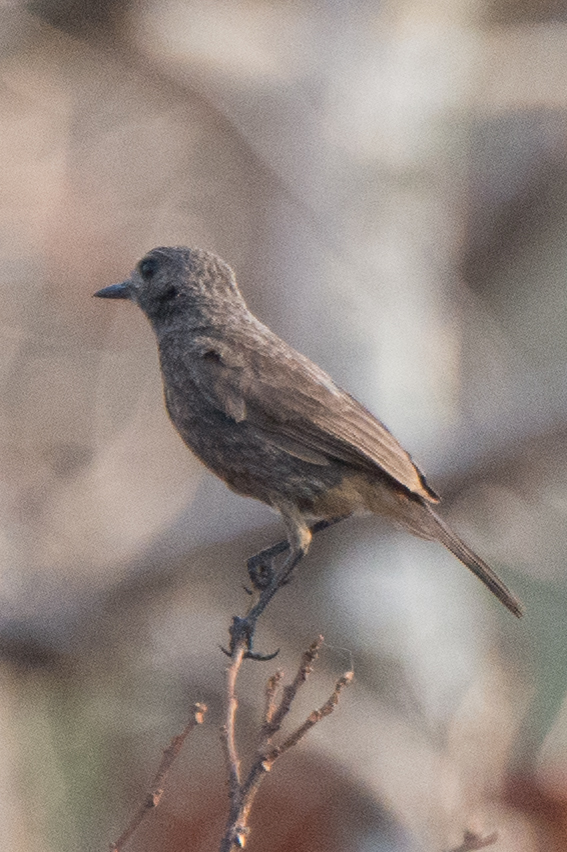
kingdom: Animalia
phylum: Chordata
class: Aves
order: Passeriformes
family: Muscicapidae
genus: Saxicola
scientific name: Saxicola caprata
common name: Pied bush chat
